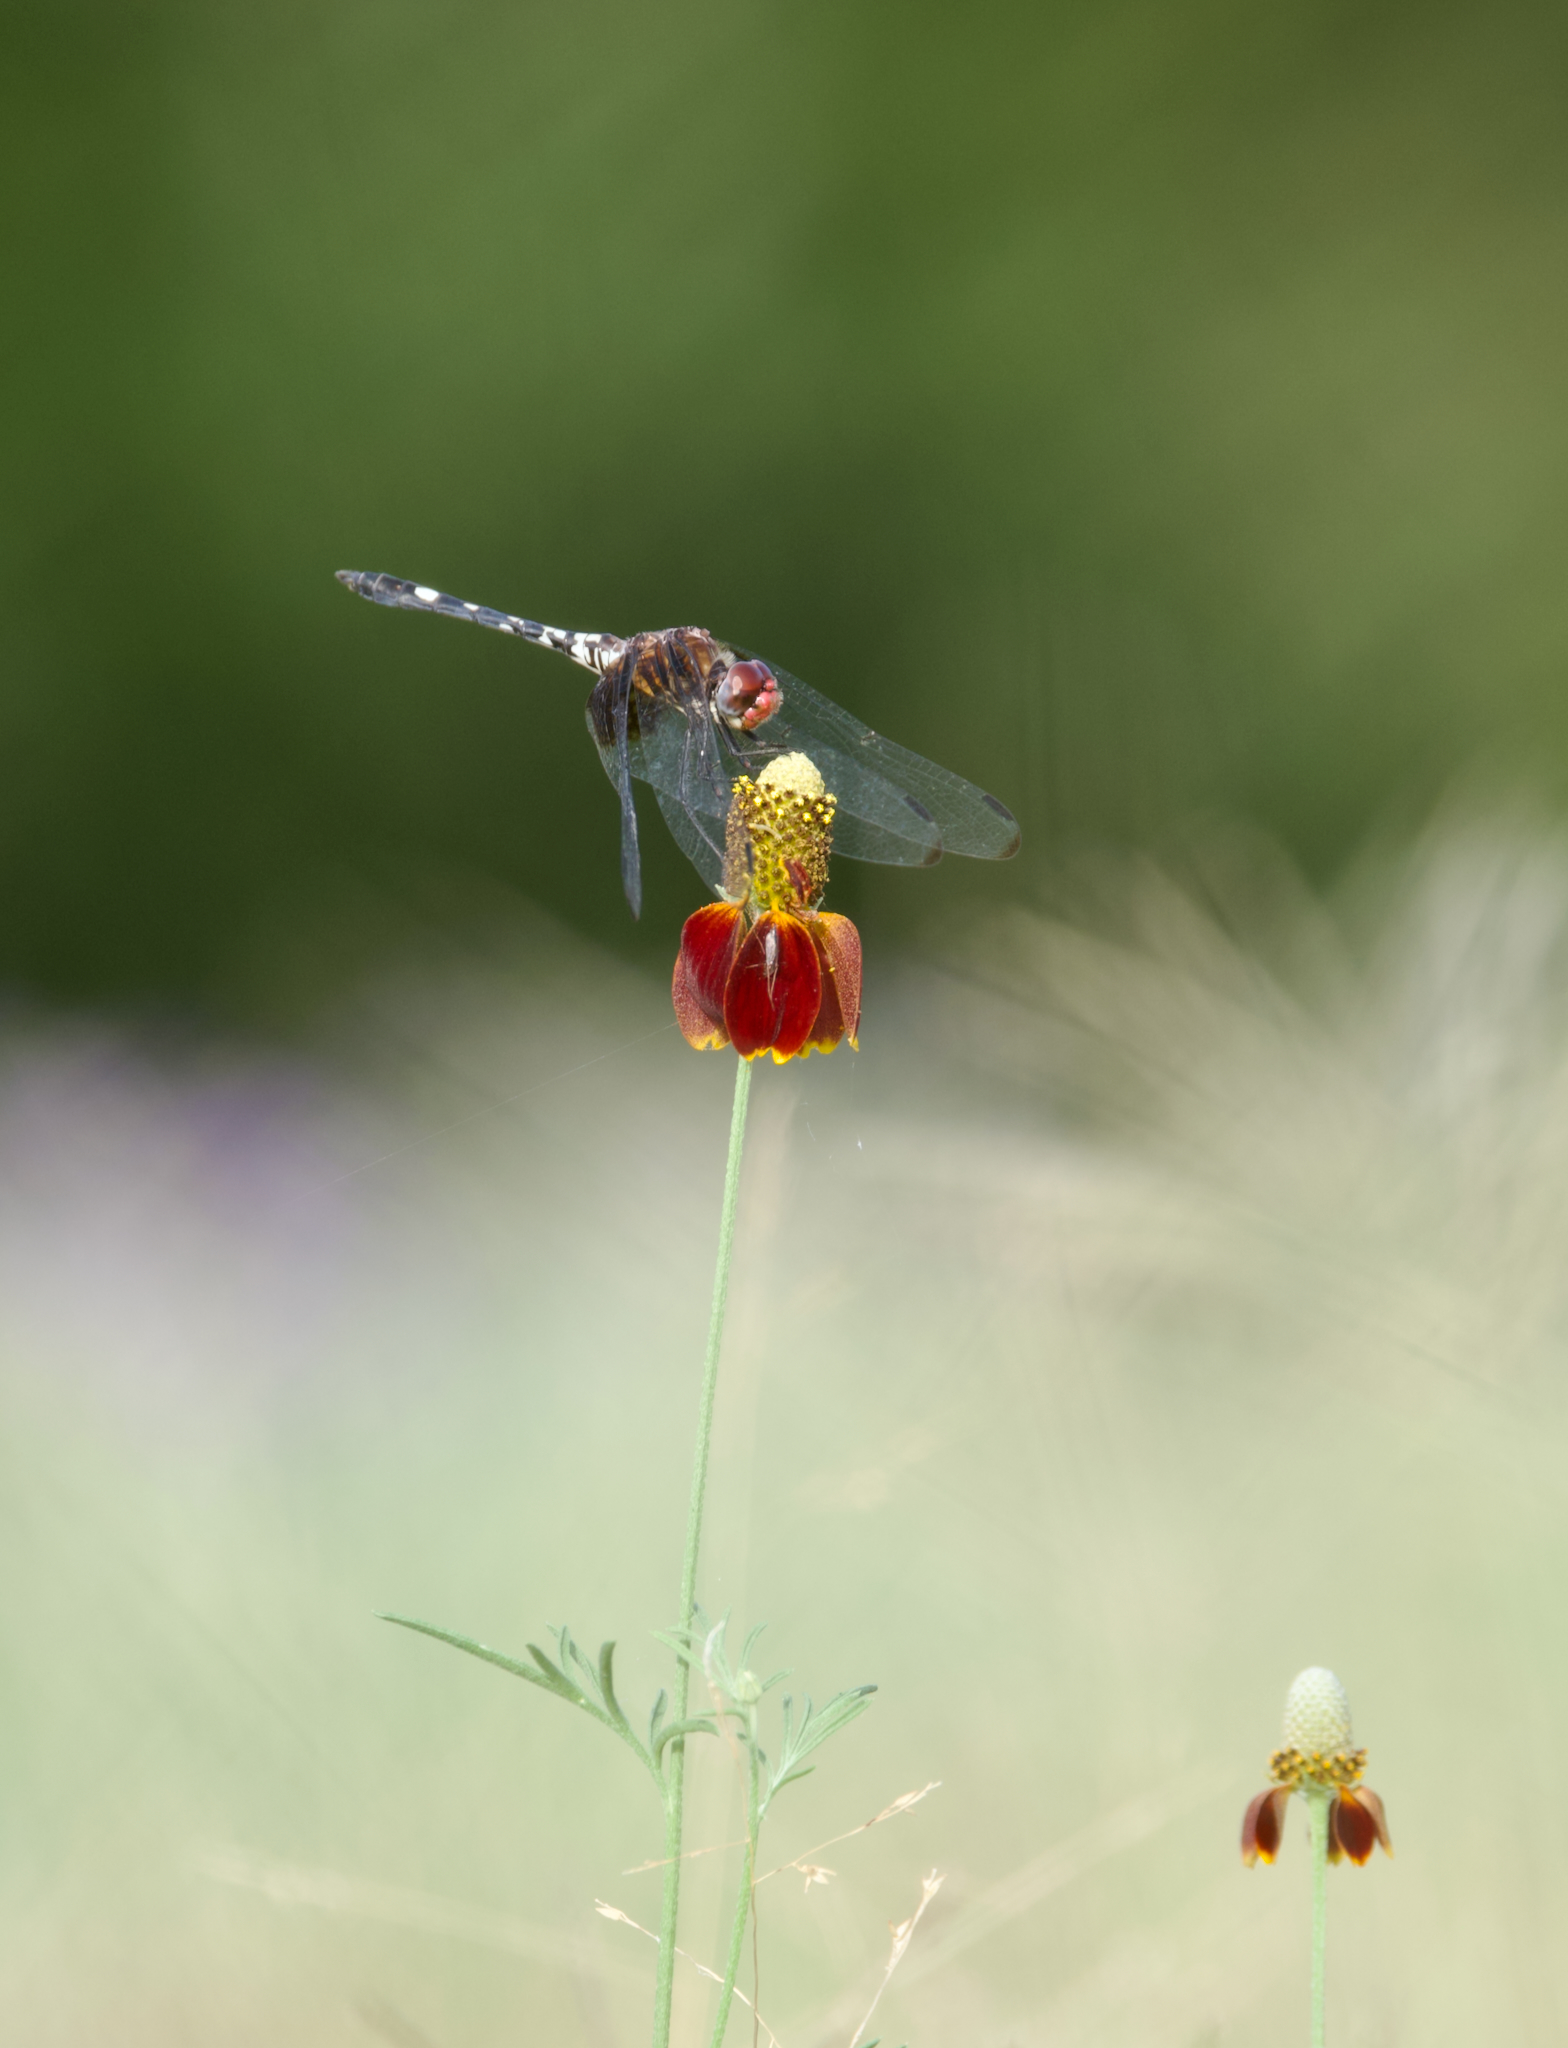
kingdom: Animalia
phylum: Arthropoda
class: Insecta
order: Odonata
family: Libellulidae
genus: Dythemis
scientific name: Dythemis fugax
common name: Checkered setwing
